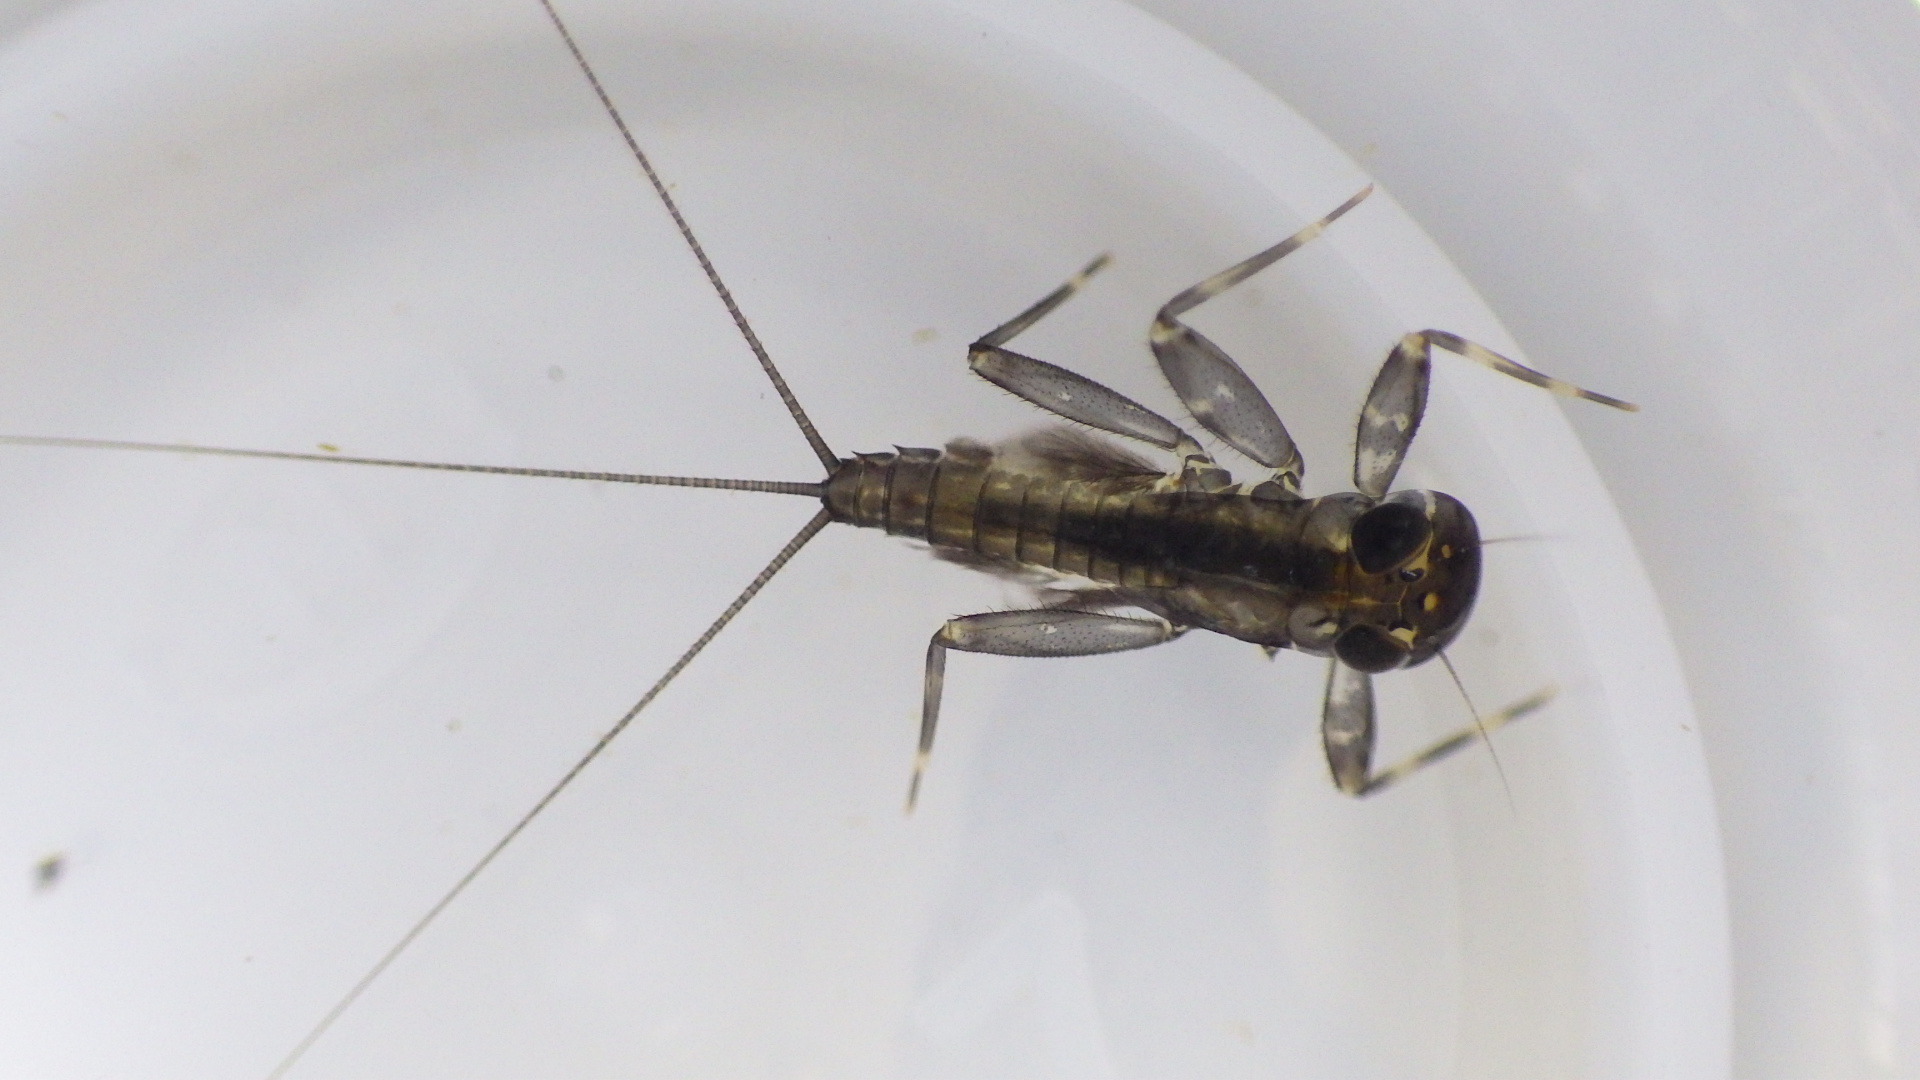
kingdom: Animalia
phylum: Arthropoda
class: Insecta
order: Ephemeroptera
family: Heptageniidae
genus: Stenacron
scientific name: Stenacron carolina
